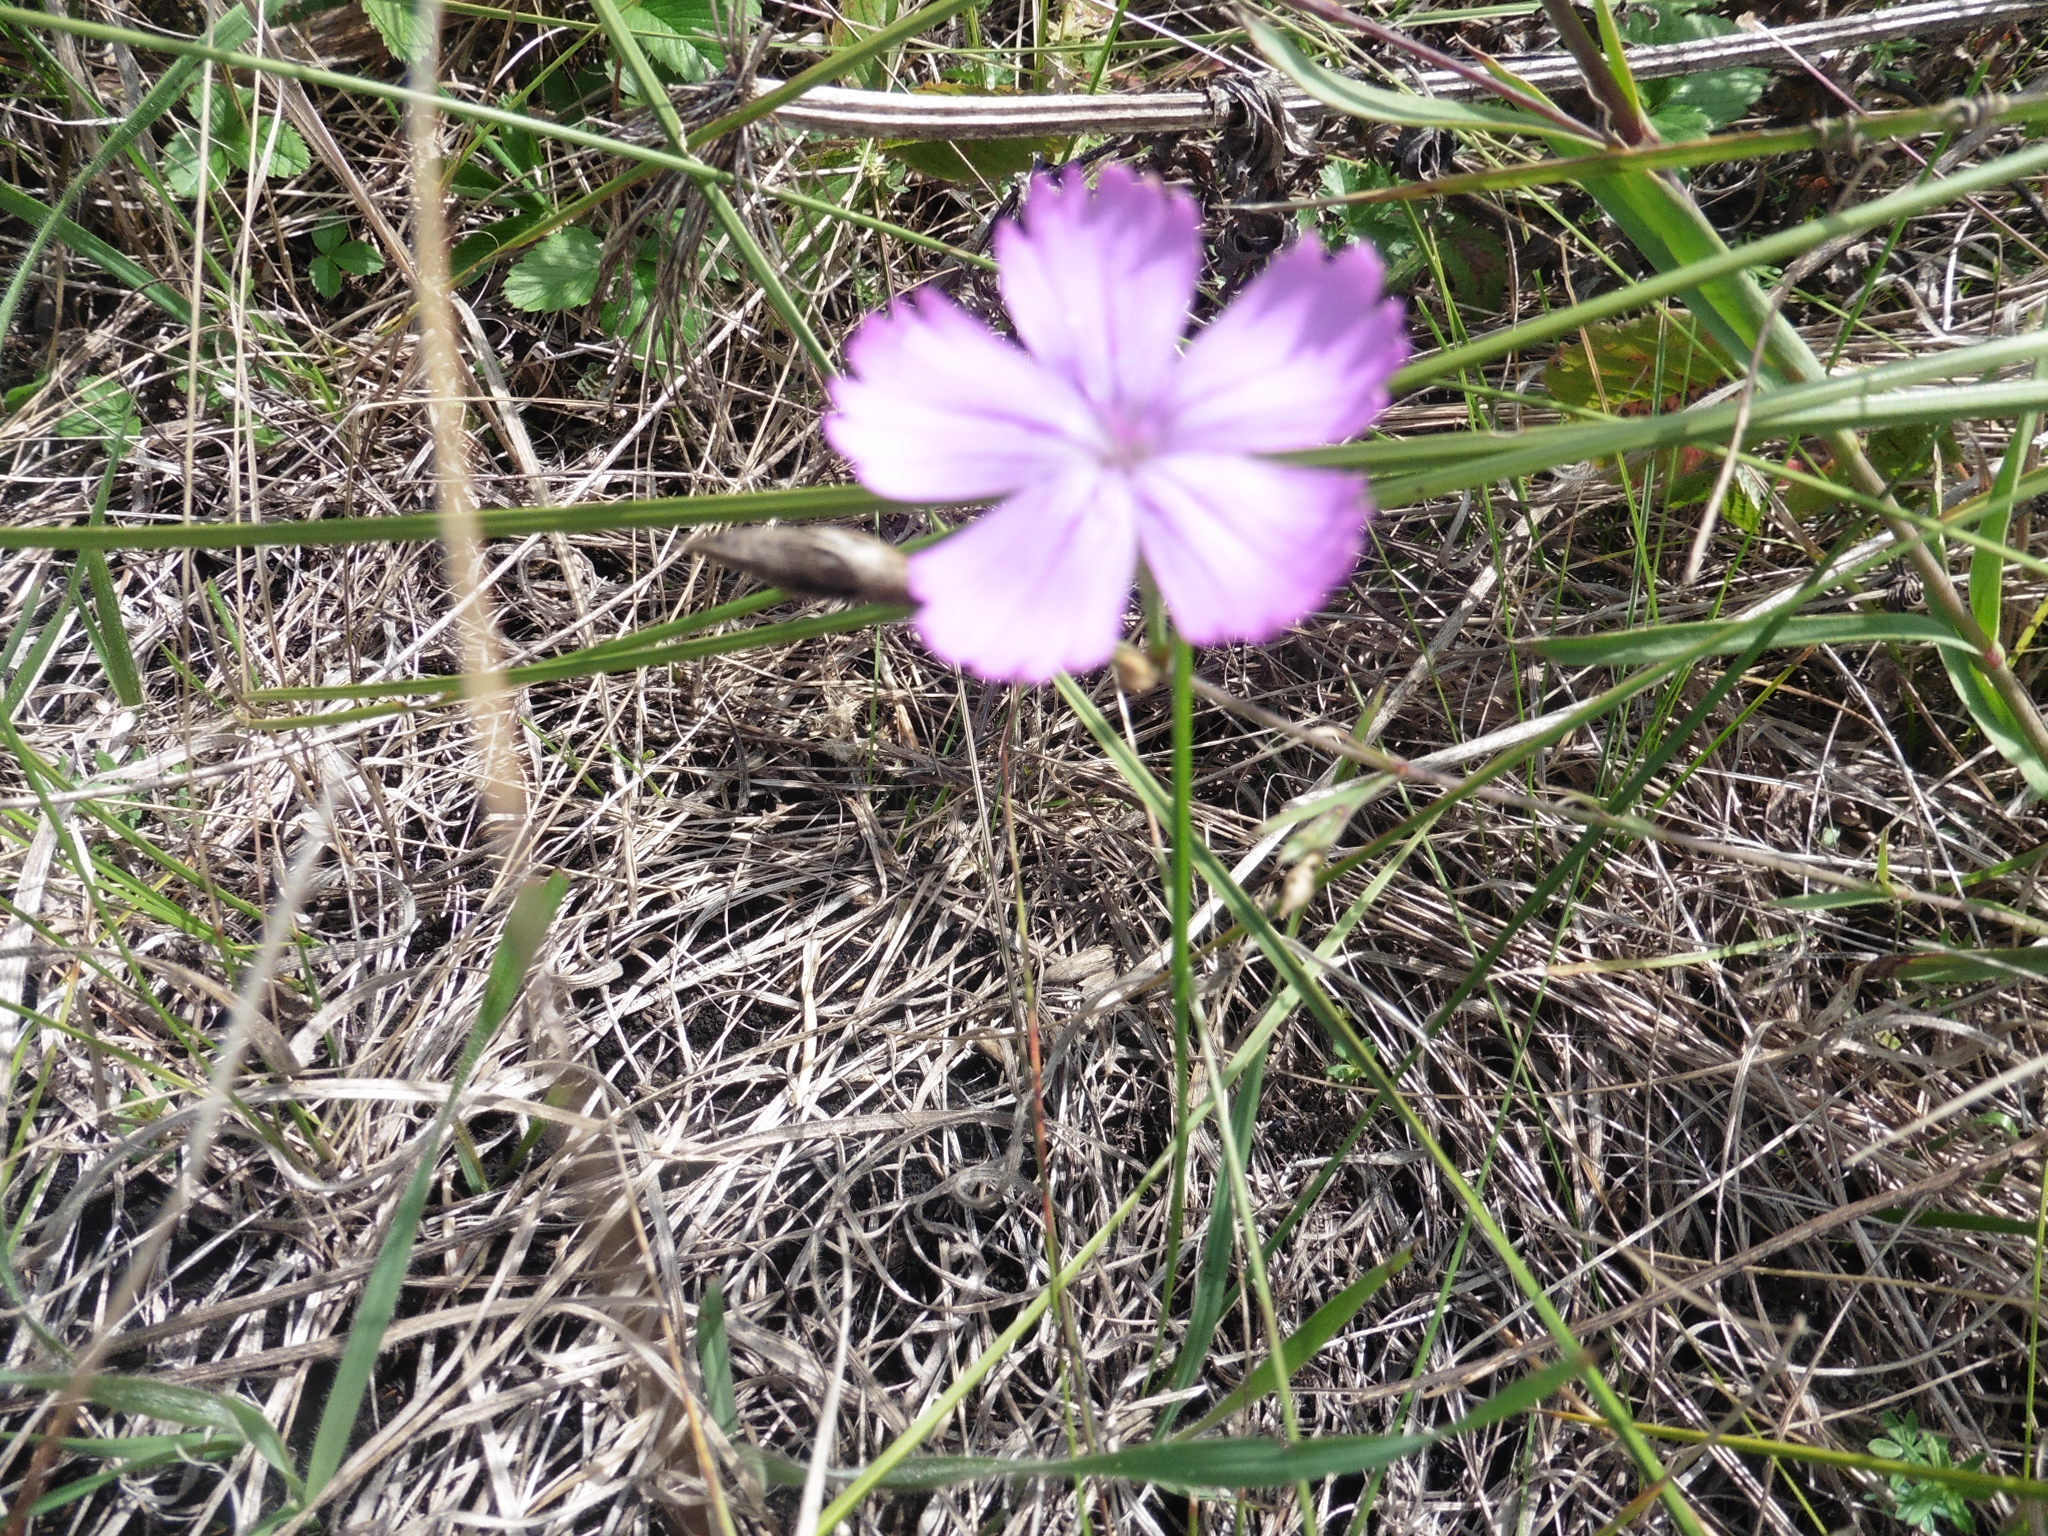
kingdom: Plantae
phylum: Tracheophyta
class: Magnoliopsida
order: Caryophyllales
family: Caryophyllaceae
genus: Dianthus
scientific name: Dianthus chinensis
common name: Rainbow pink
